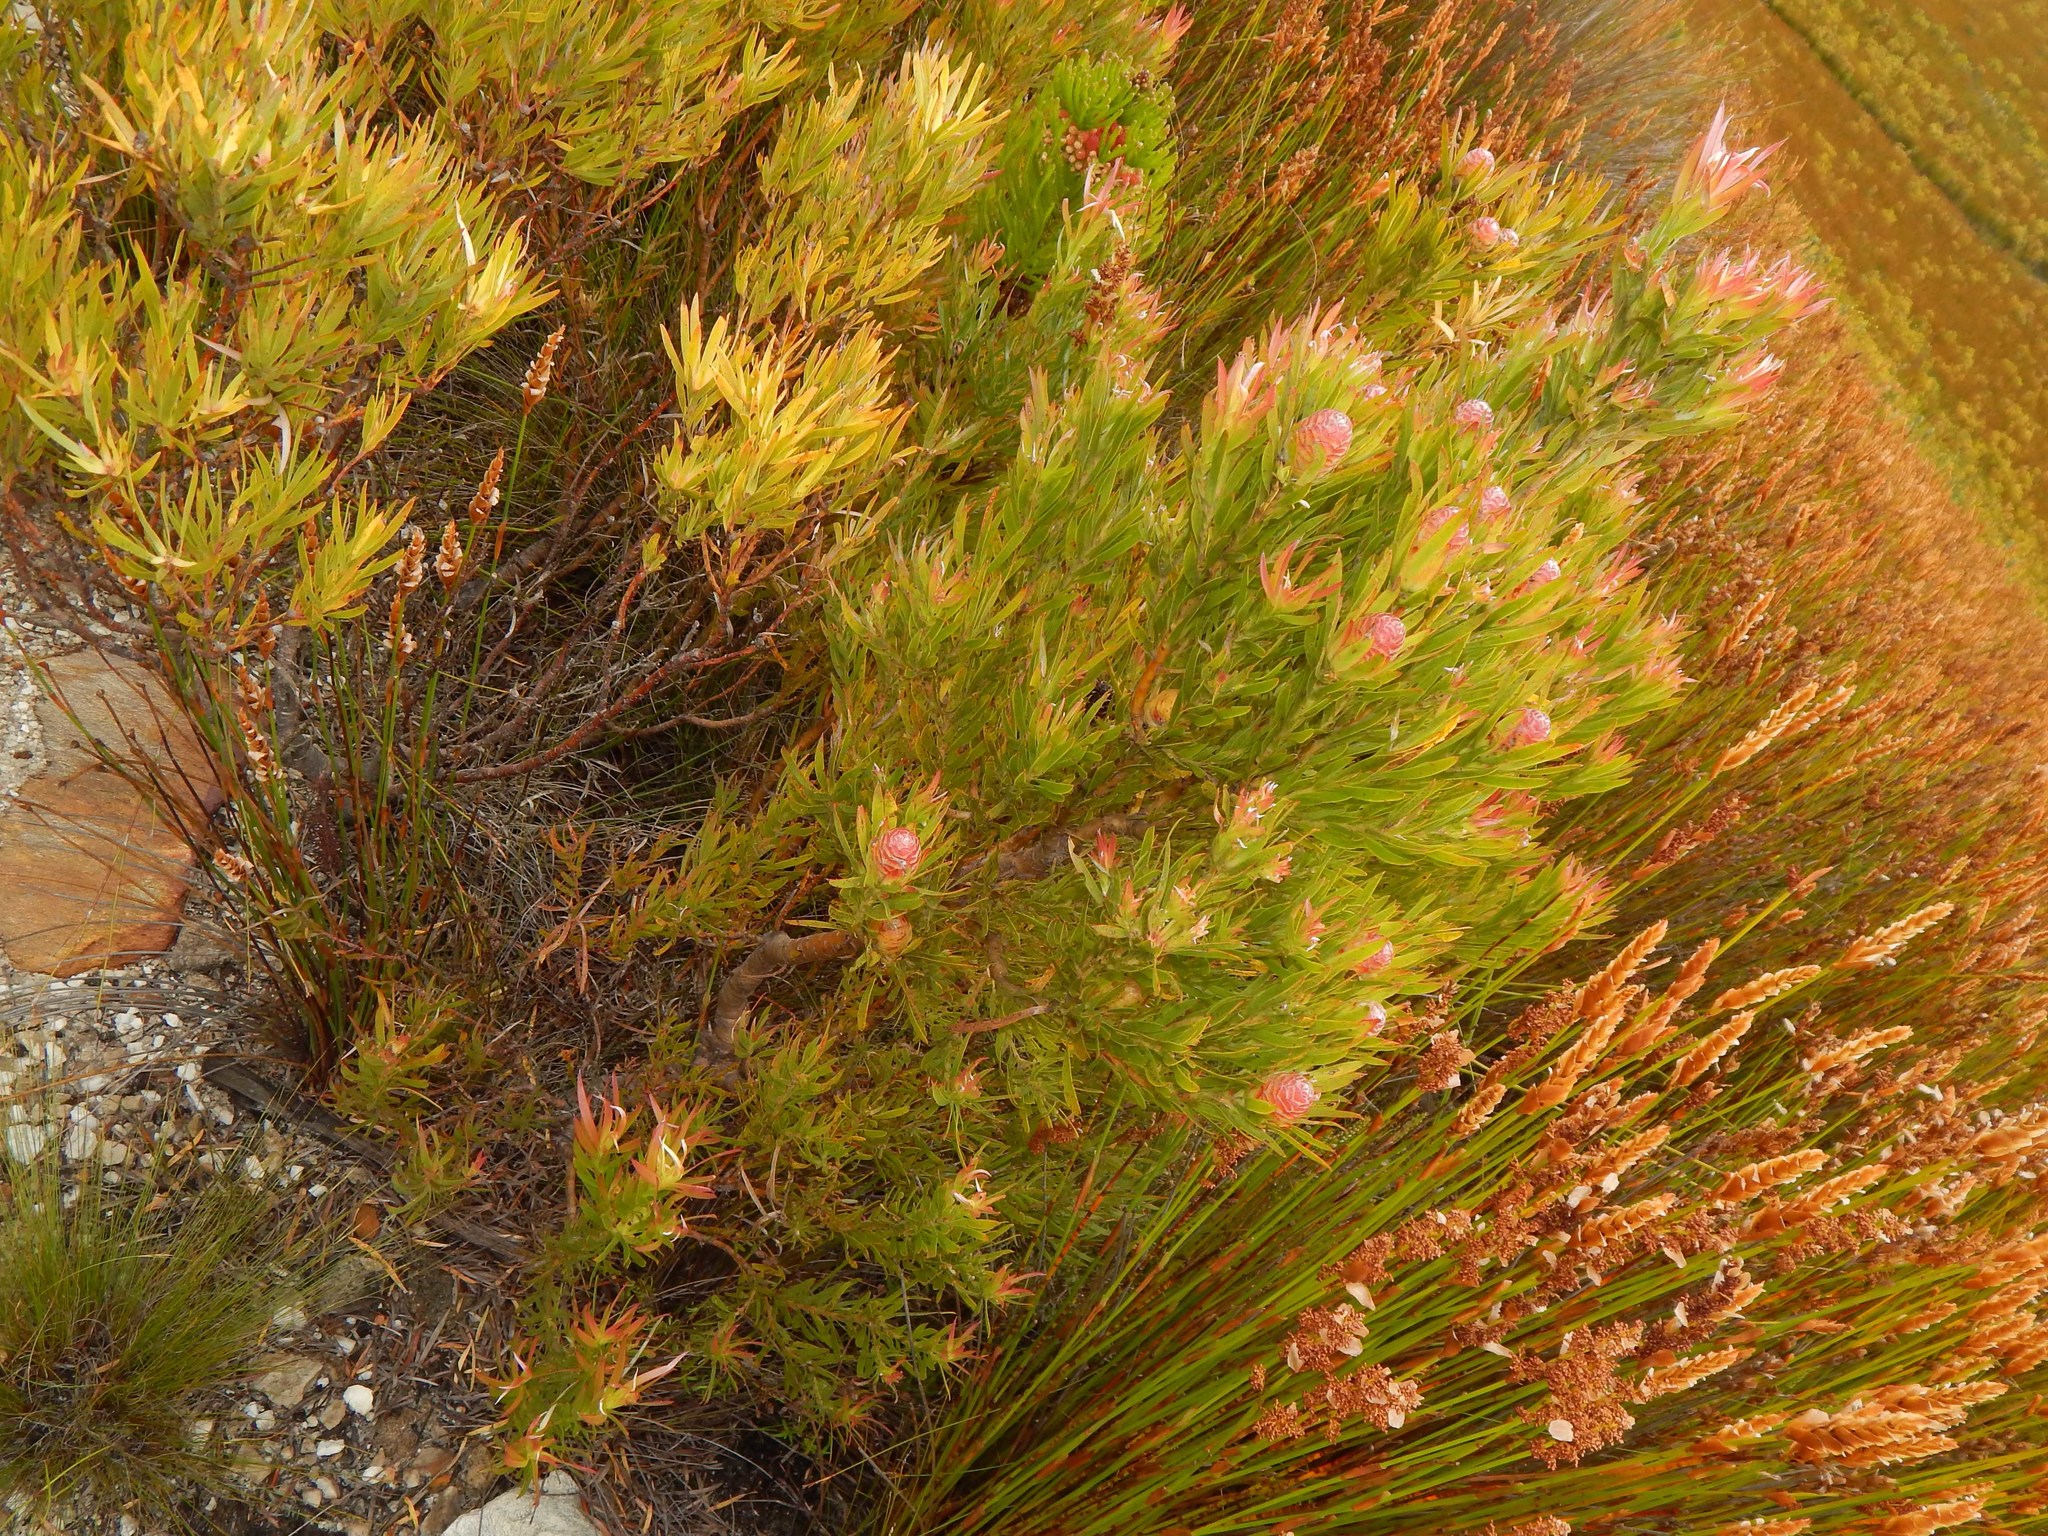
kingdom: Plantae
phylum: Tracheophyta
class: Magnoliopsida
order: Proteales
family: Proteaceae
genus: Leucadendron
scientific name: Leucadendron xanthoconus
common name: Sickle-leaf conebush
